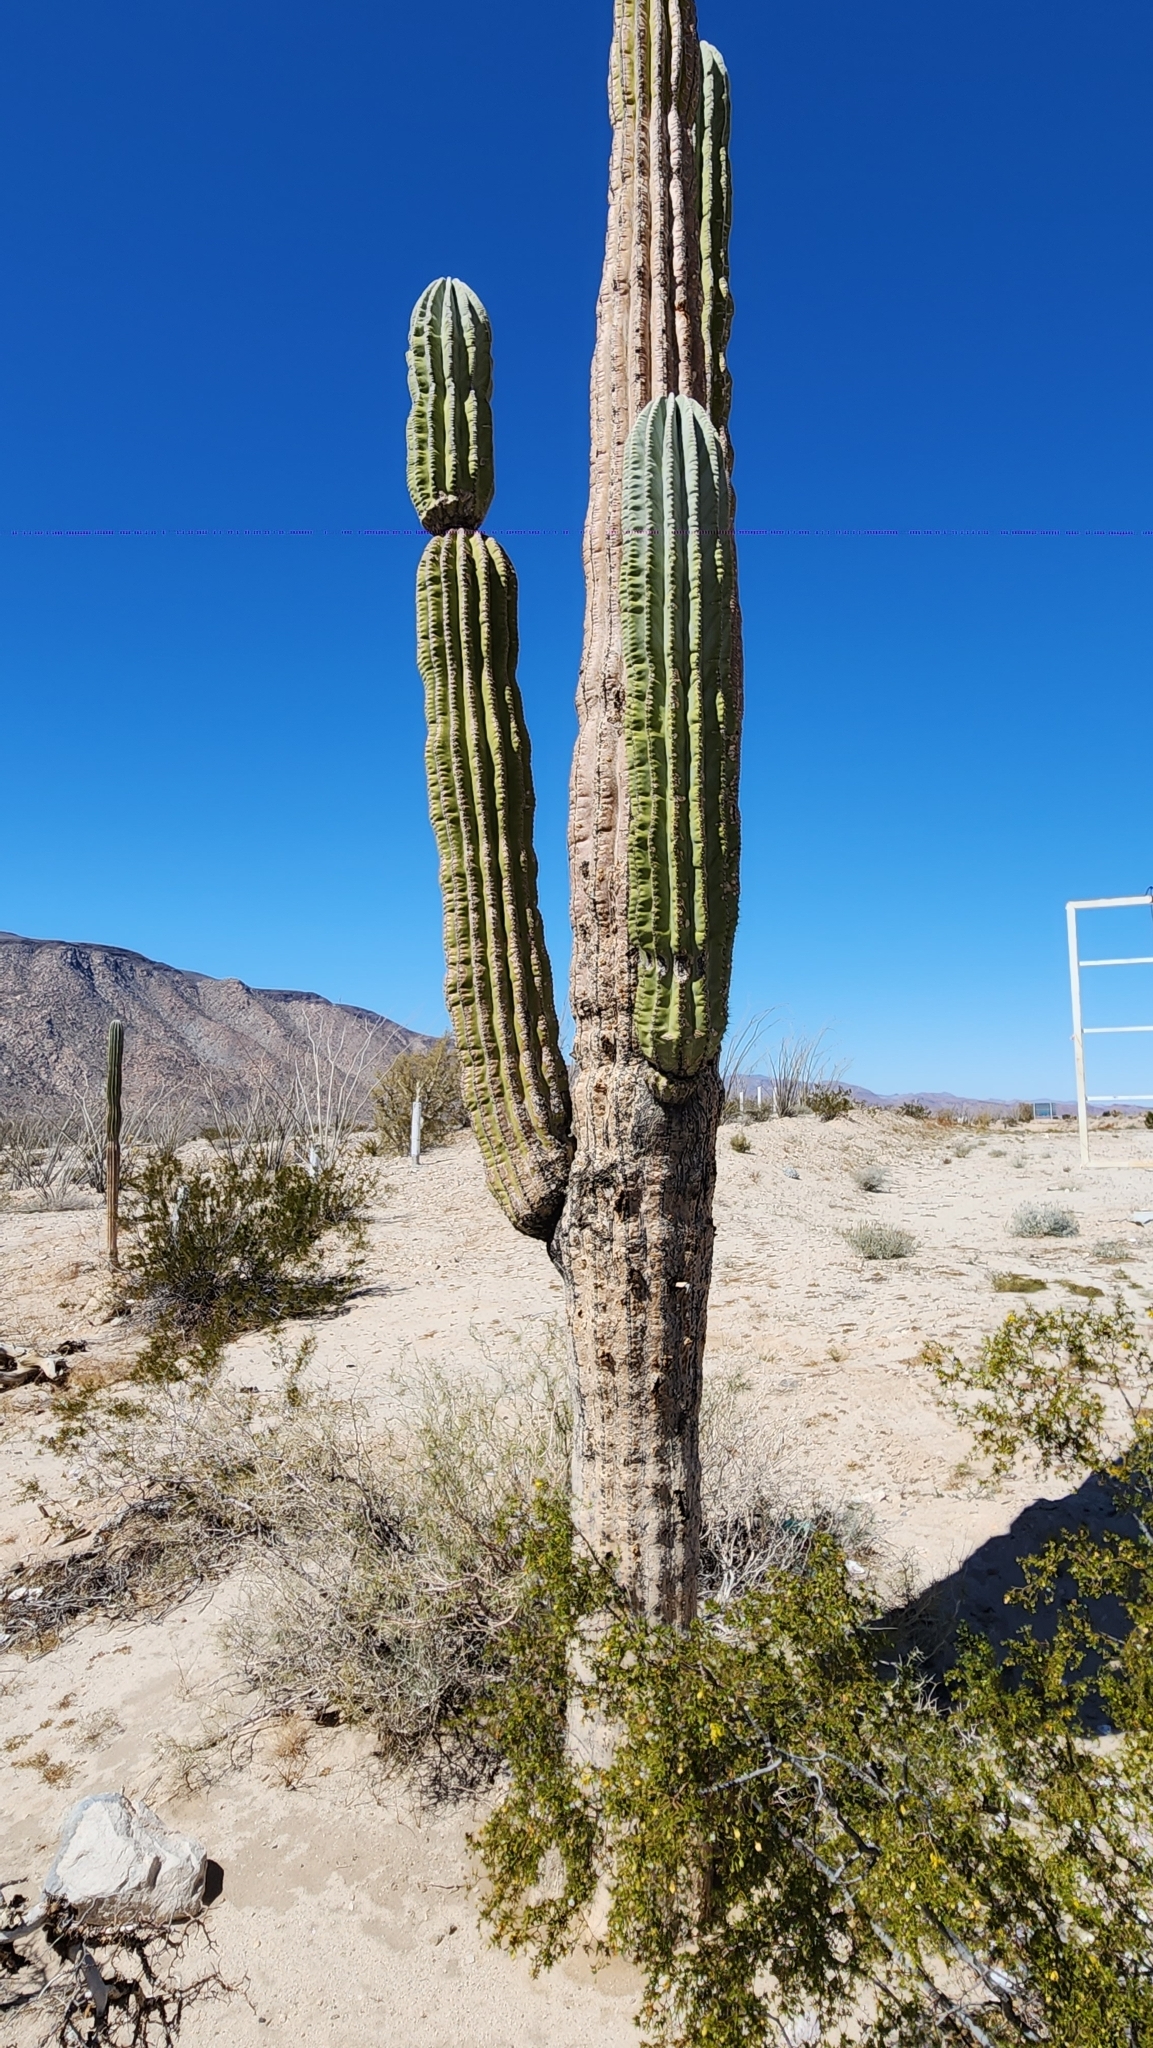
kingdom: Plantae
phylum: Tracheophyta
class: Magnoliopsida
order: Caryophyllales
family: Cactaceae
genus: Pachycereus
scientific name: Pachycereus pringlei
